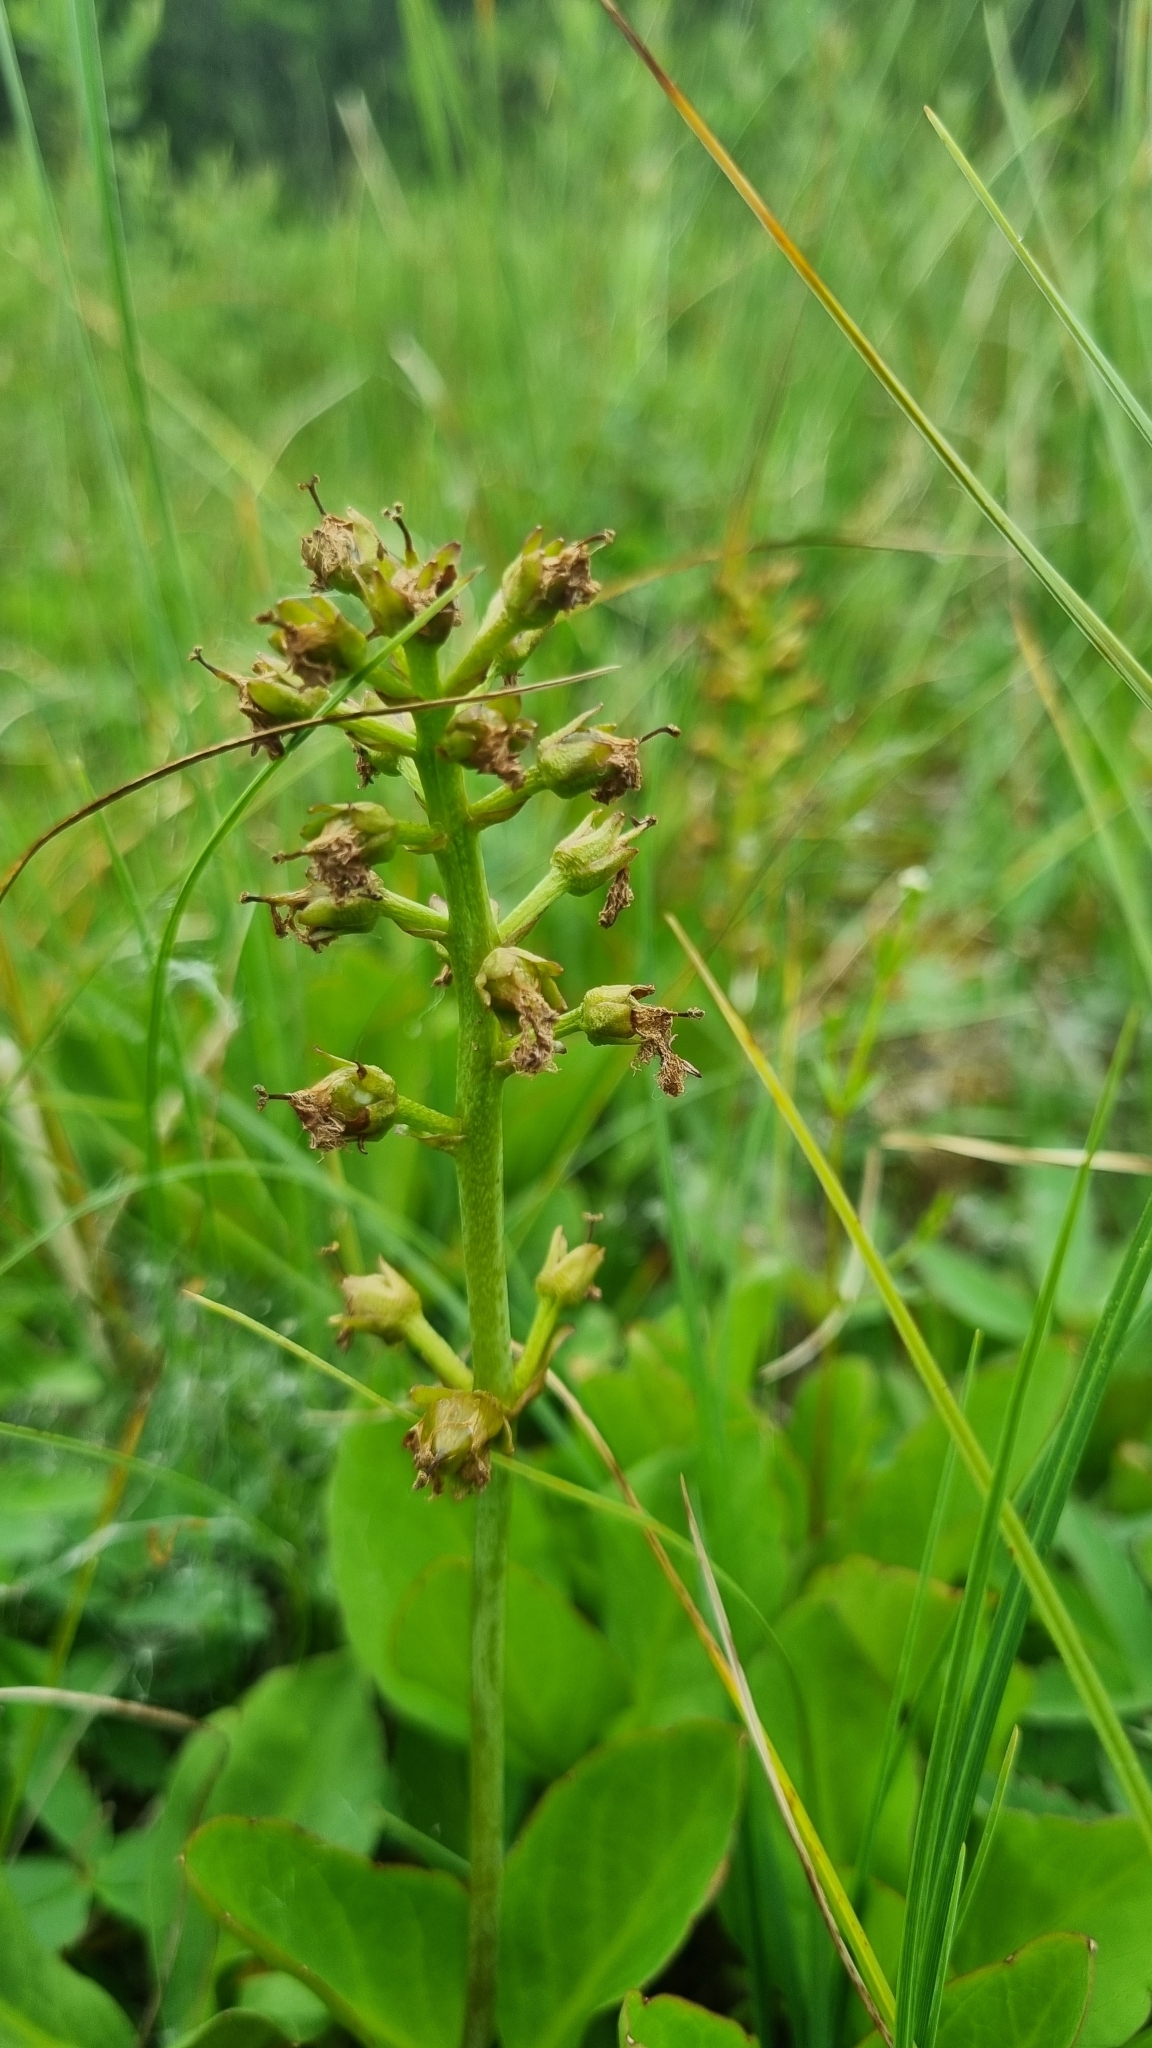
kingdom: Plantae
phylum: Tracheophyta
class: Magnoliopsida
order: Asterales
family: Menyanthaceae
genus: Menyanthes
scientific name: Menyanthes trifoliata
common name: Bogbean
